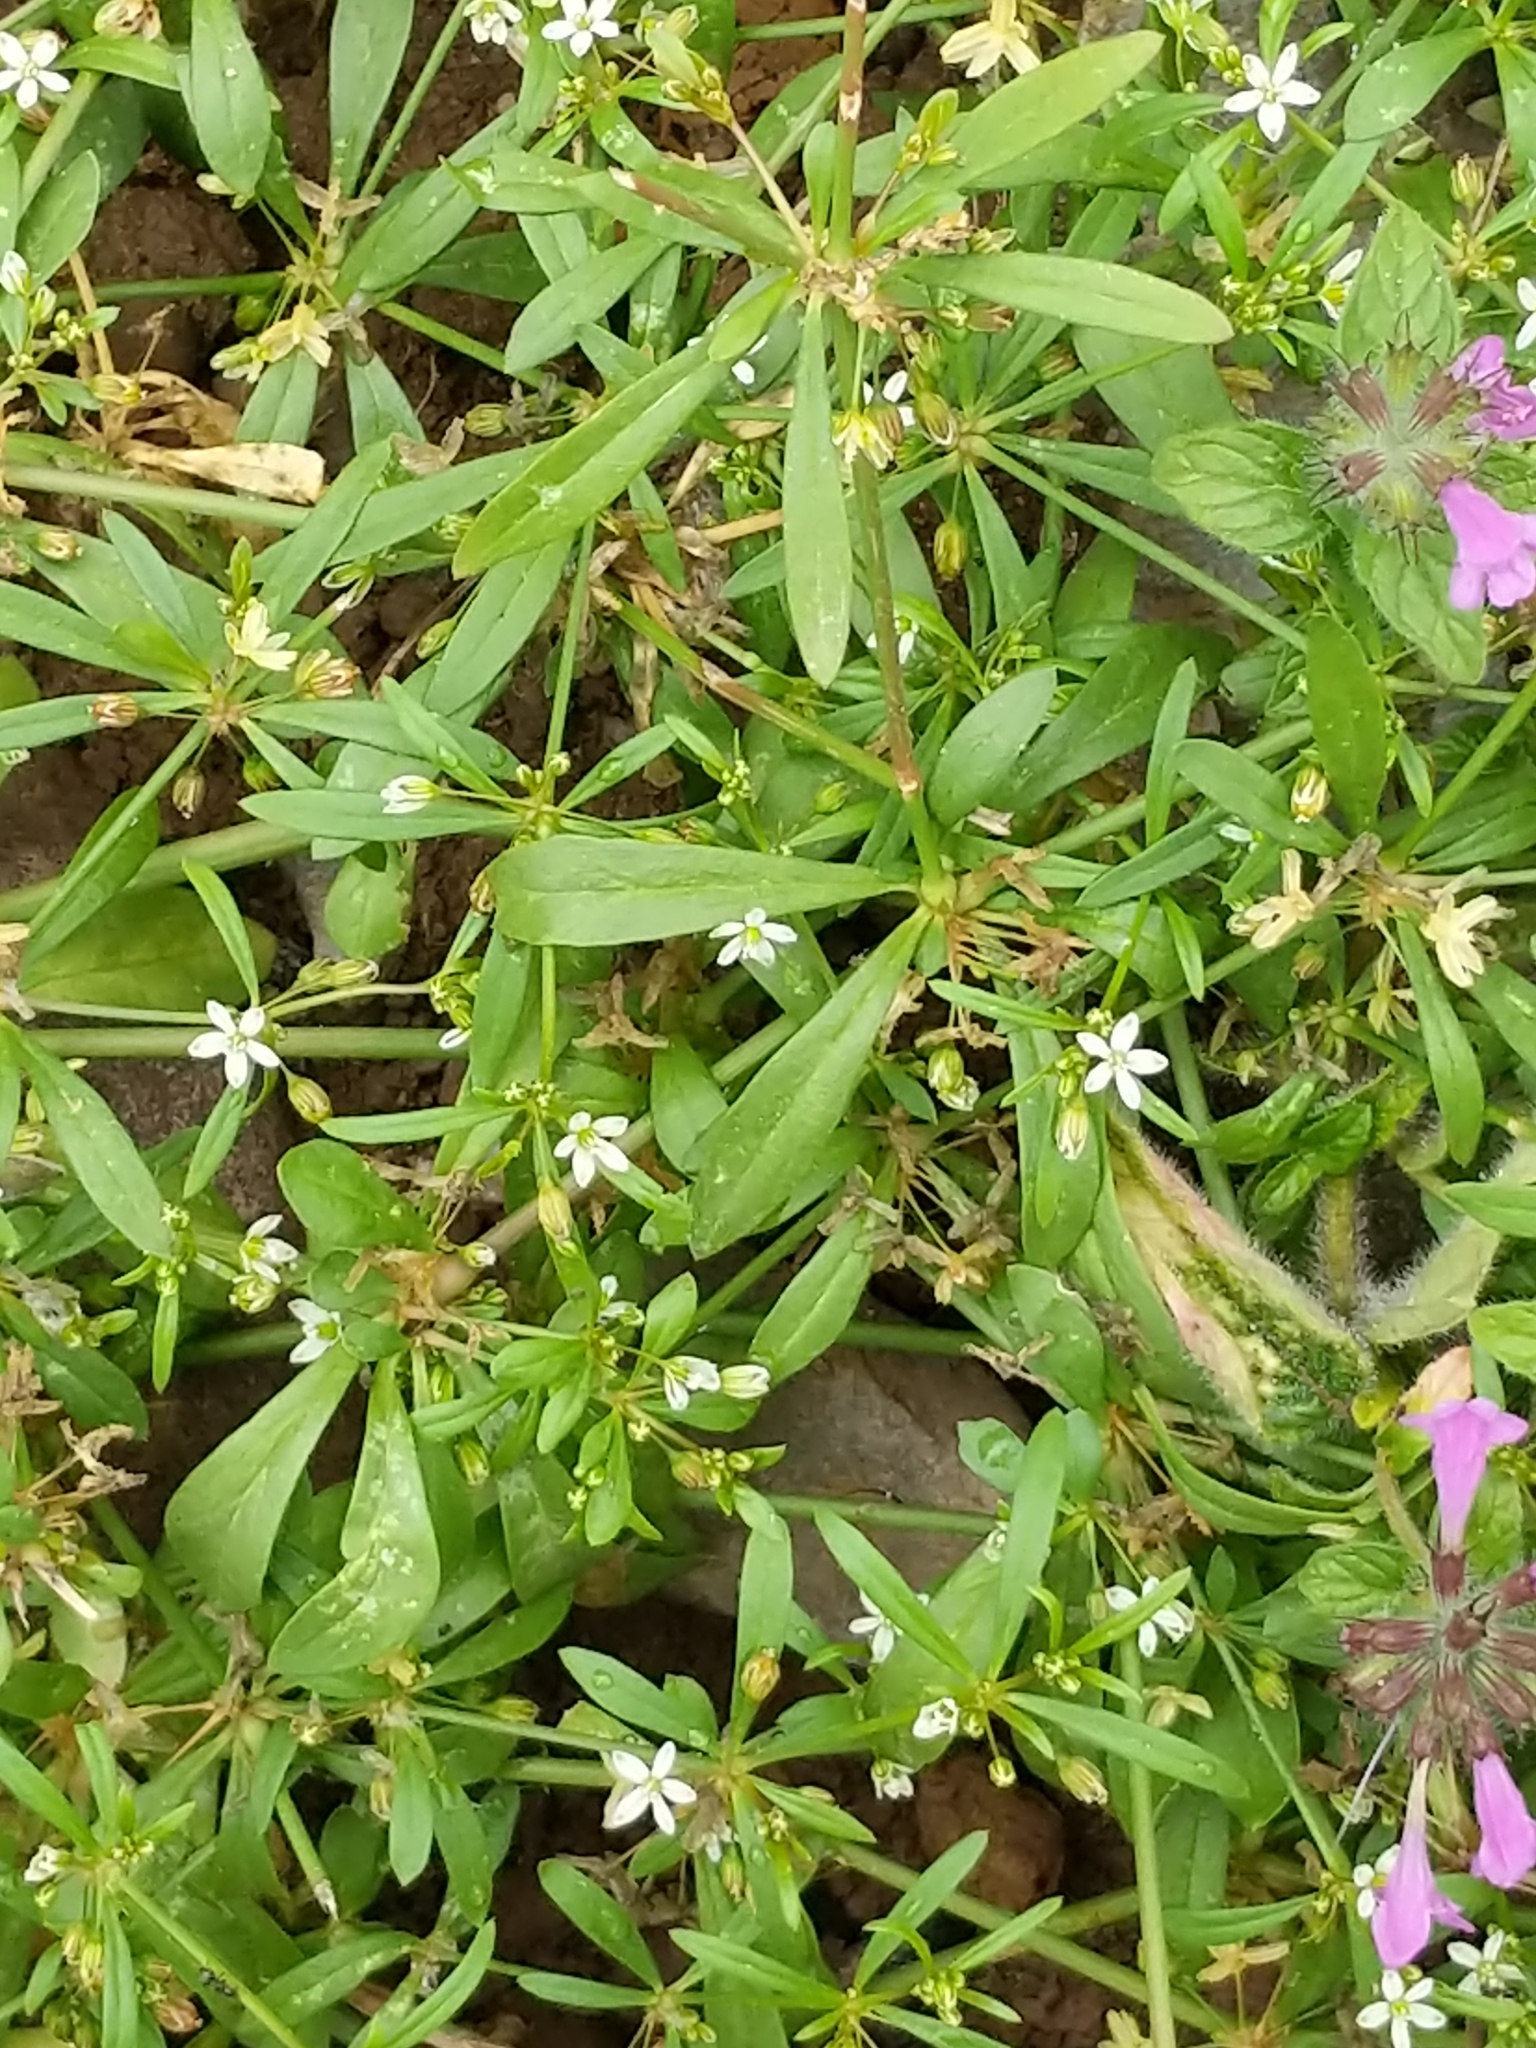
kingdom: Plantae
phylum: Tracheophyta
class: Magnoliopsida
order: Caryophyllales
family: Molluginaceae
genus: Mollugo
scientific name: Mollugo verticillata
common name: Green carpetweed
